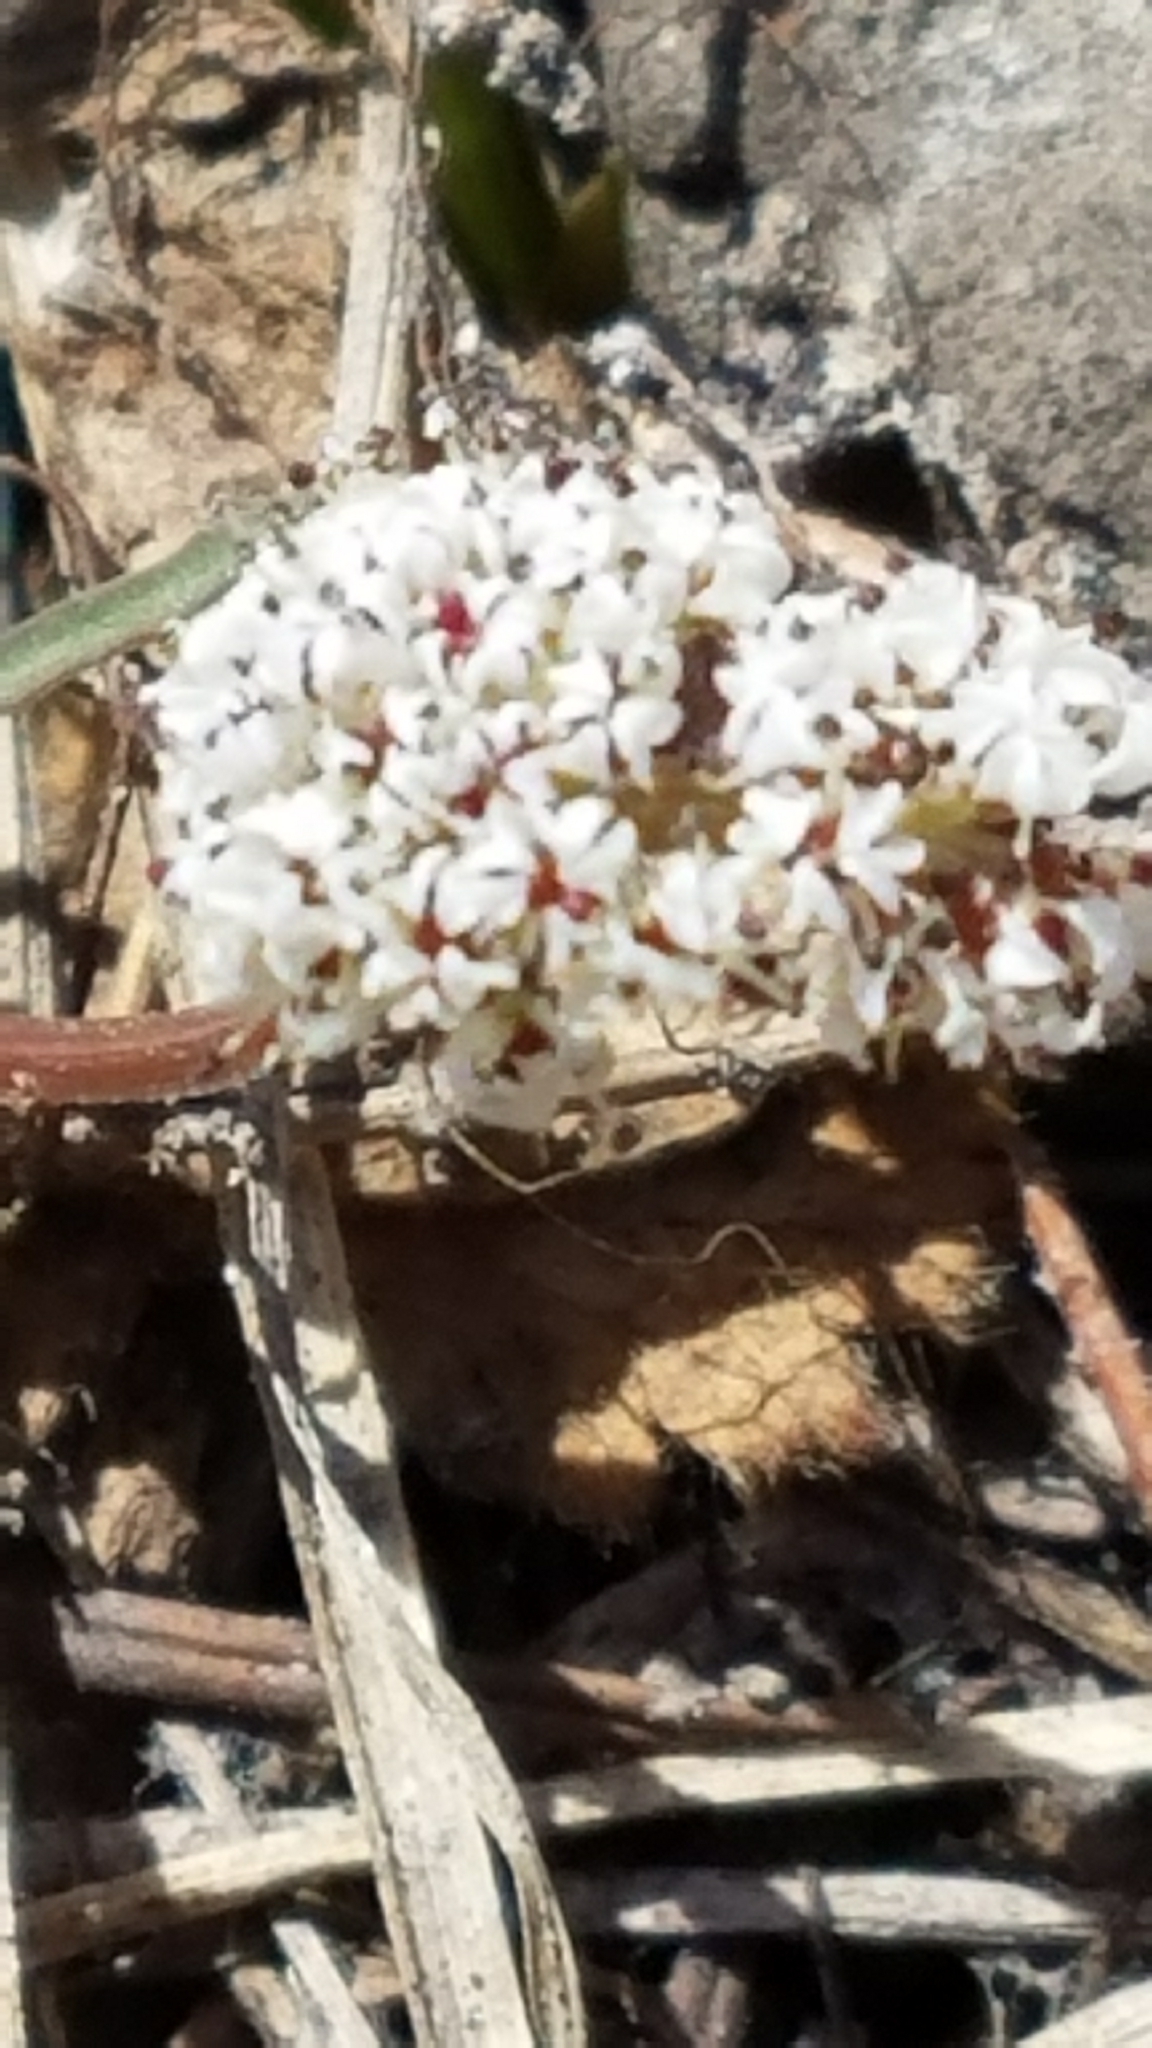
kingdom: Plantae
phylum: Tracheophyta
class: Magnoliopsida
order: Apiales
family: Apiaceae
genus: Lomatium
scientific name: Lomatium linearifolium
